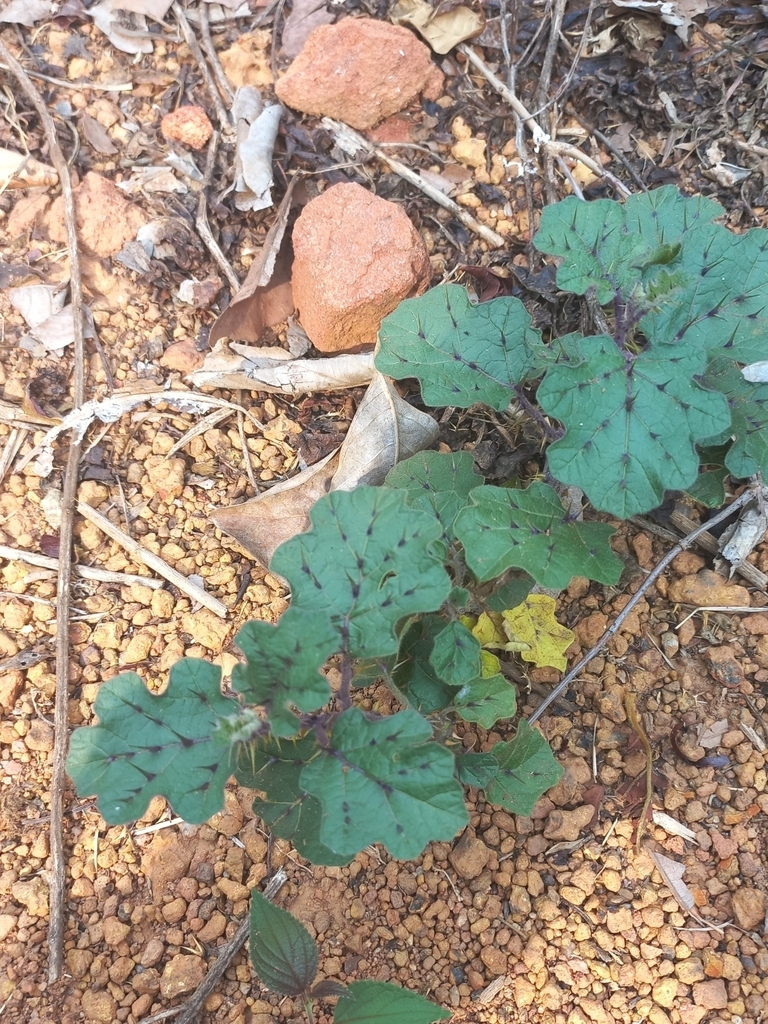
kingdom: Plantae
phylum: Tracheophyta
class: Magnoliopsida
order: Solanales
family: Solanaceae
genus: Solanum
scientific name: Solanum insanum
